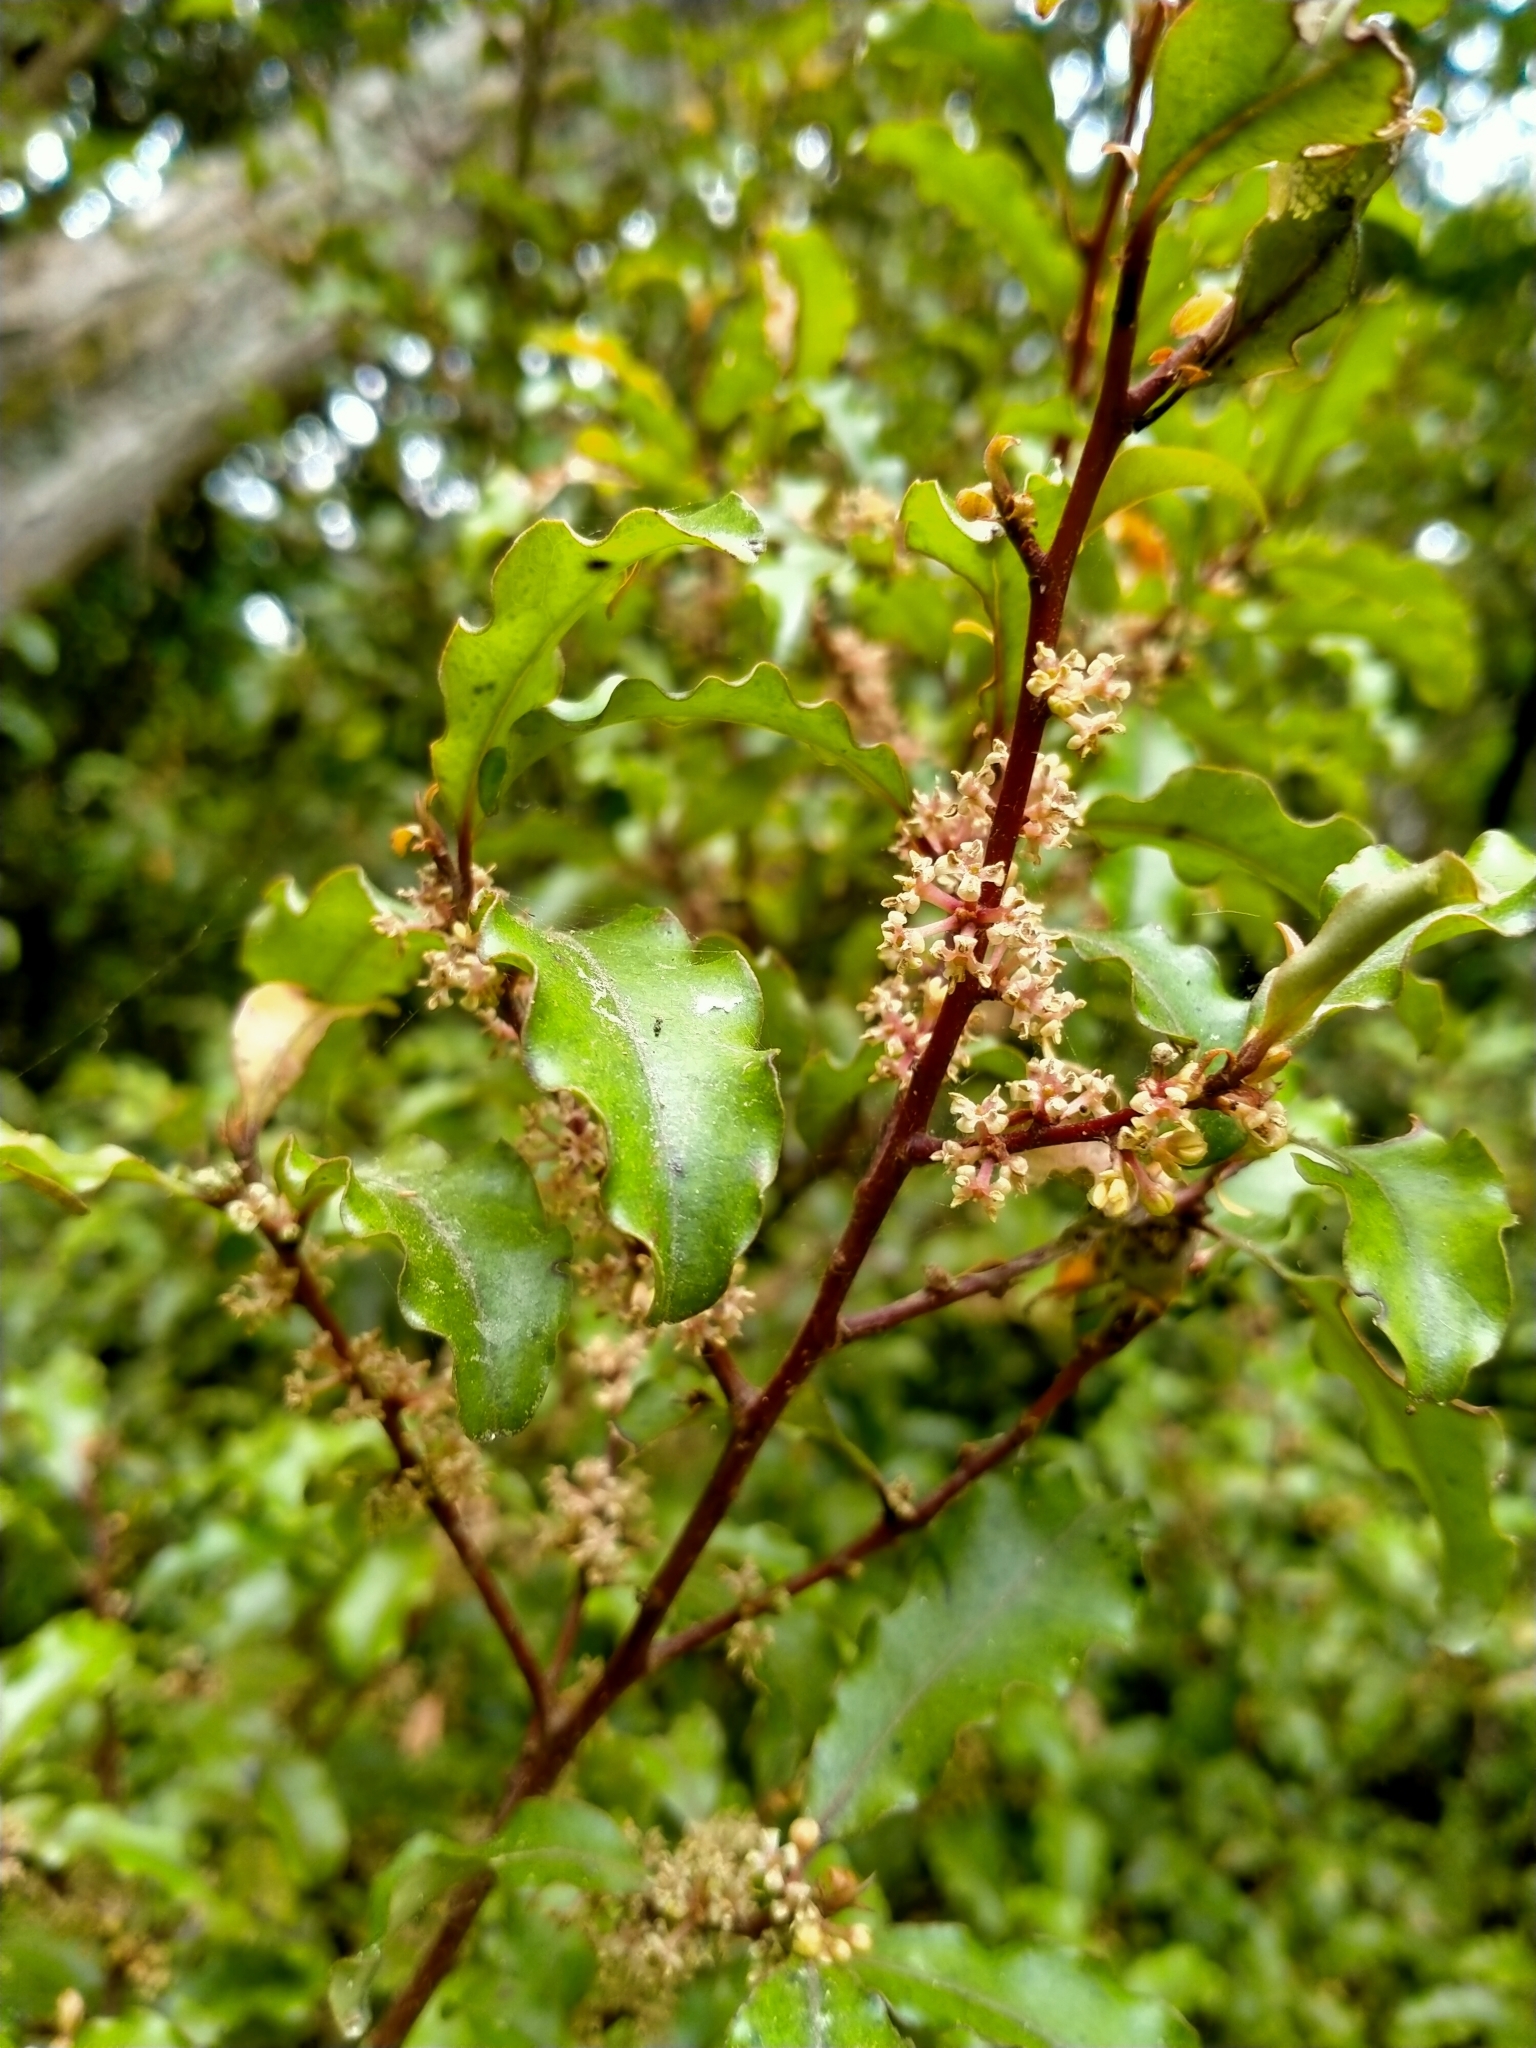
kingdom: Plantae
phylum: Tracheophyta
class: Magnoliopsida
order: Ericales
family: Primulaceae
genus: Myrsine
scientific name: Myrsine australis
